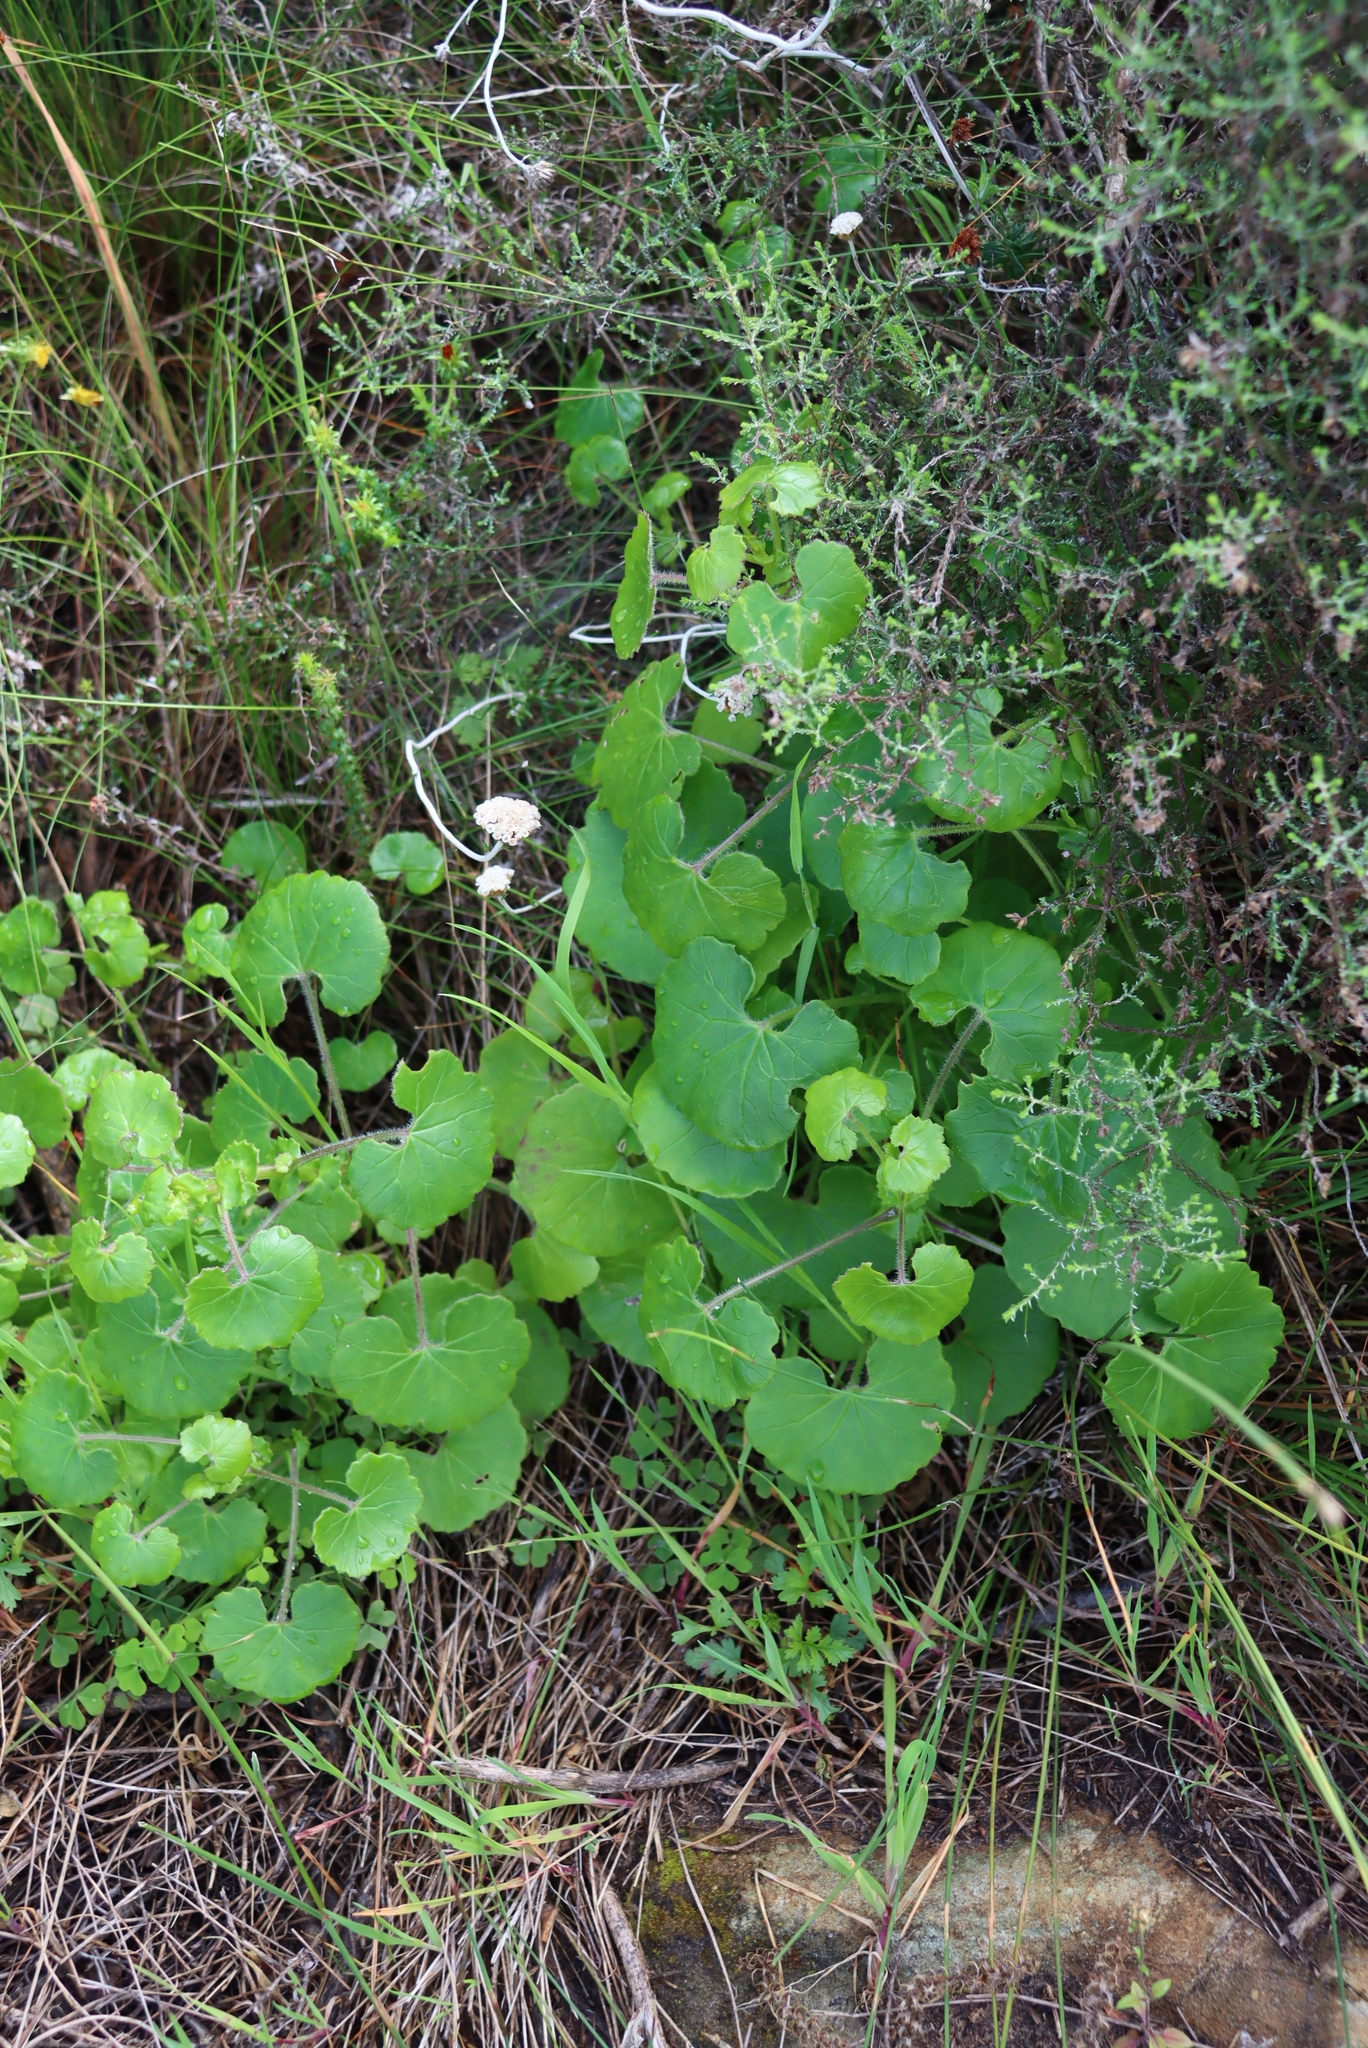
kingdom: Plantae
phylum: Tracheophyta
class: Magnoliopsida
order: Asterales
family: Asteraceae
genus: Cineraria
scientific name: Cineraria geifolia
